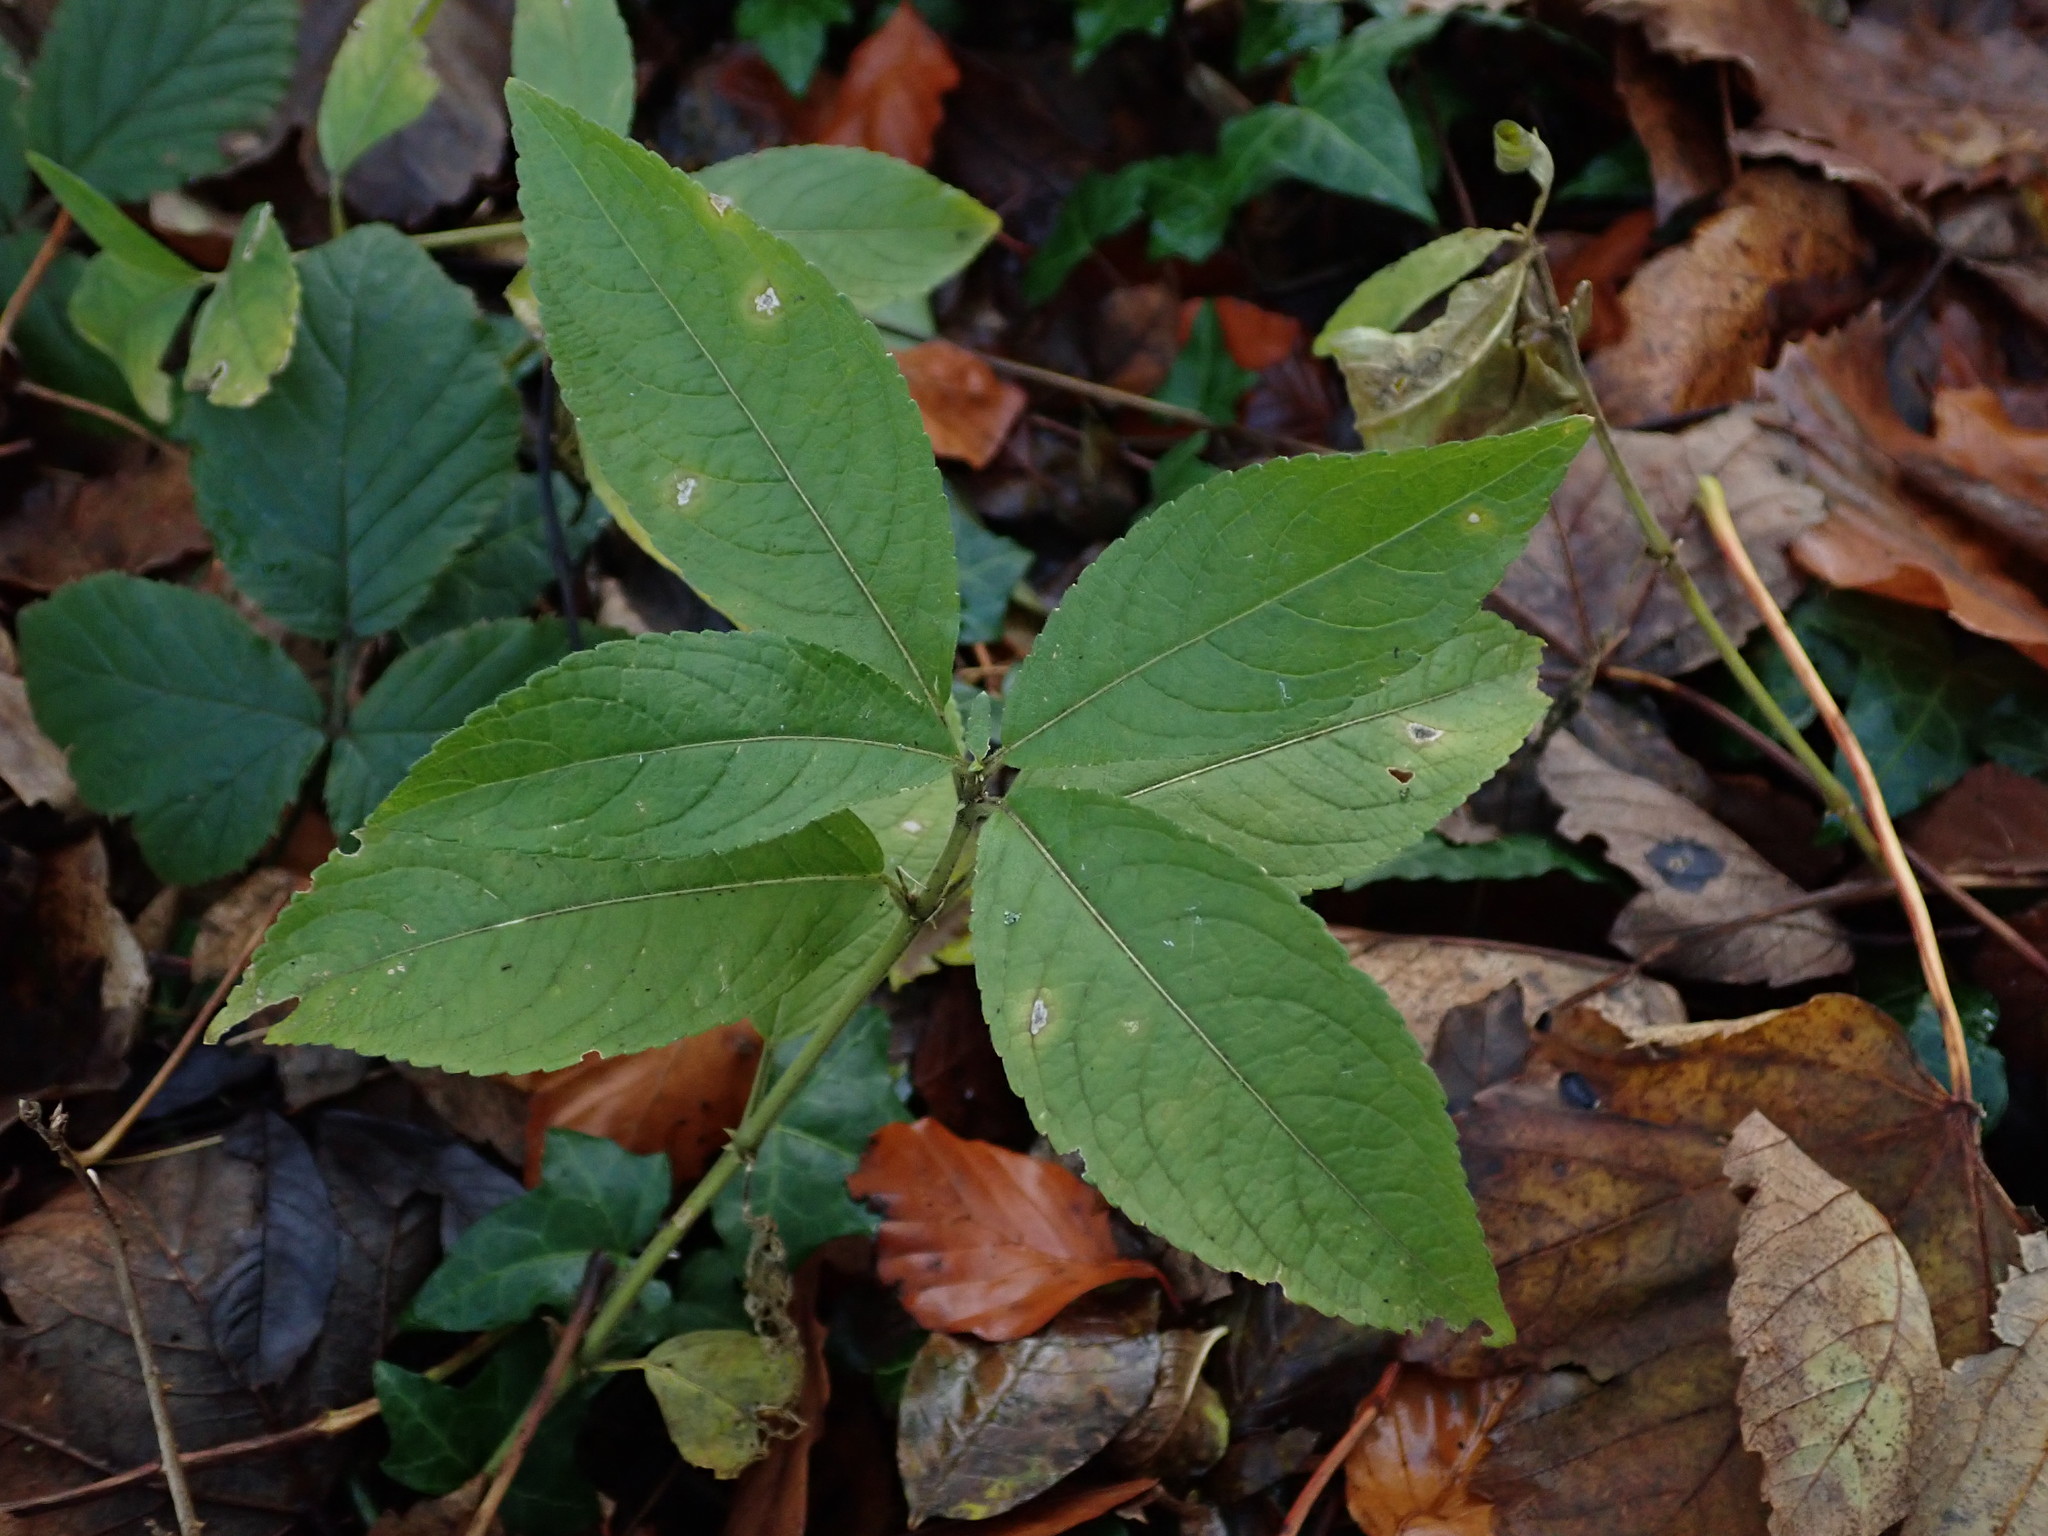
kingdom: Plantae
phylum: Tracheophyta
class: Magnoliopsida
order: Malpighiales
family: Euphorbiaceae
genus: Mercurialis
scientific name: Mercurialis perennis
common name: Dog mercury
